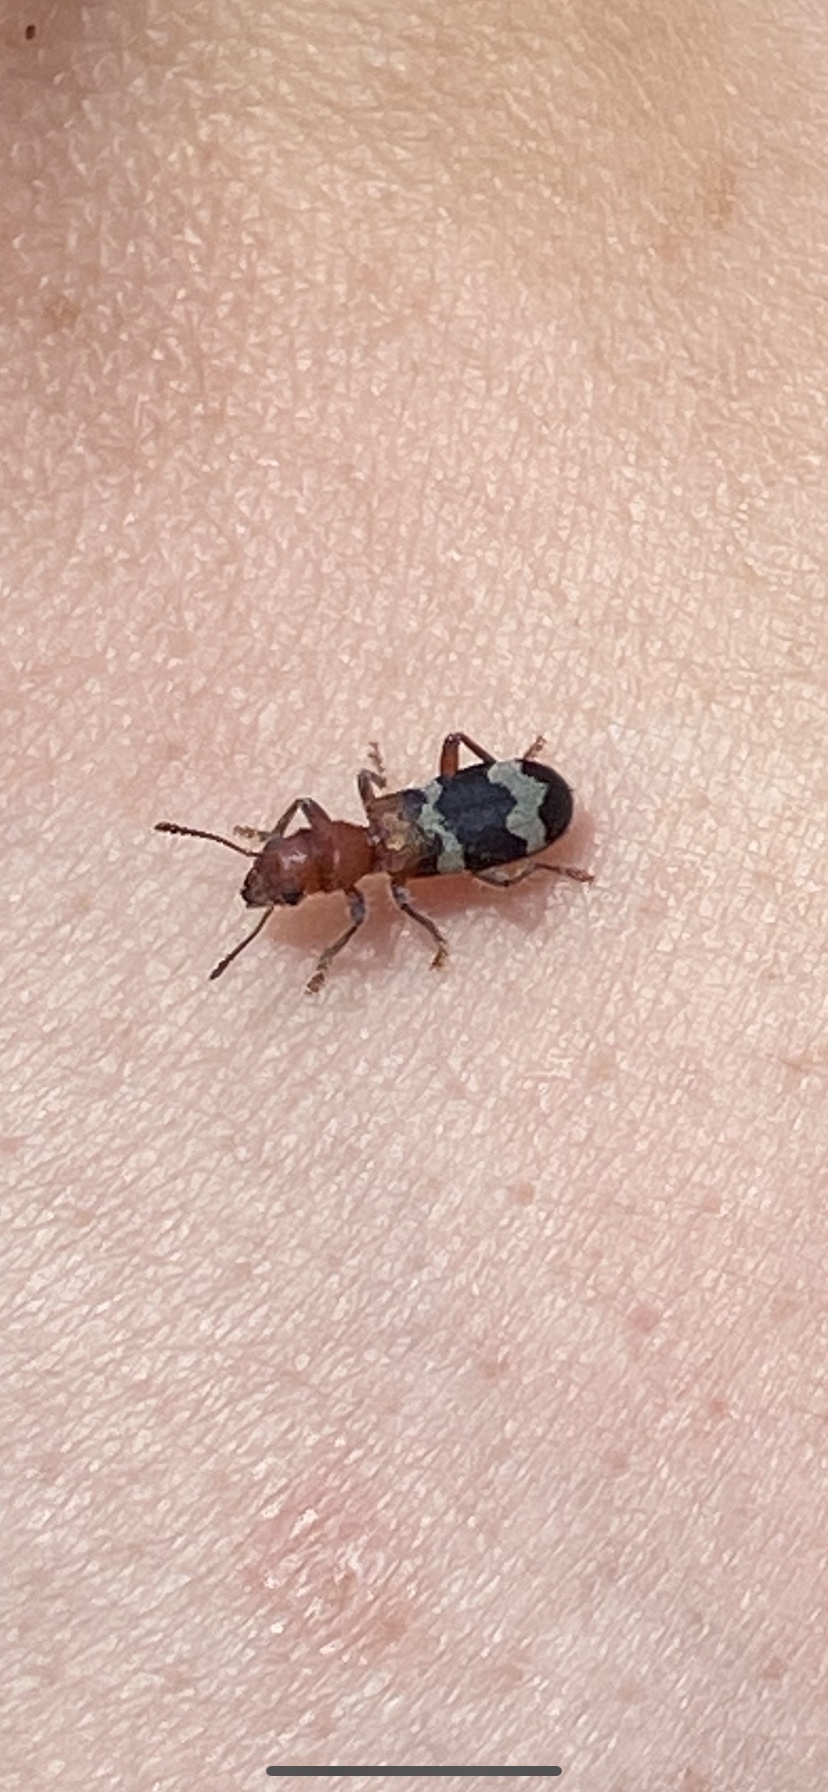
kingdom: Animalia
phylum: Arthropoda
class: Insecta
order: Coleoptera
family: Cleridae
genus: Thanasimus
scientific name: Thanasimus dubius
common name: Wavering checkered beetle
